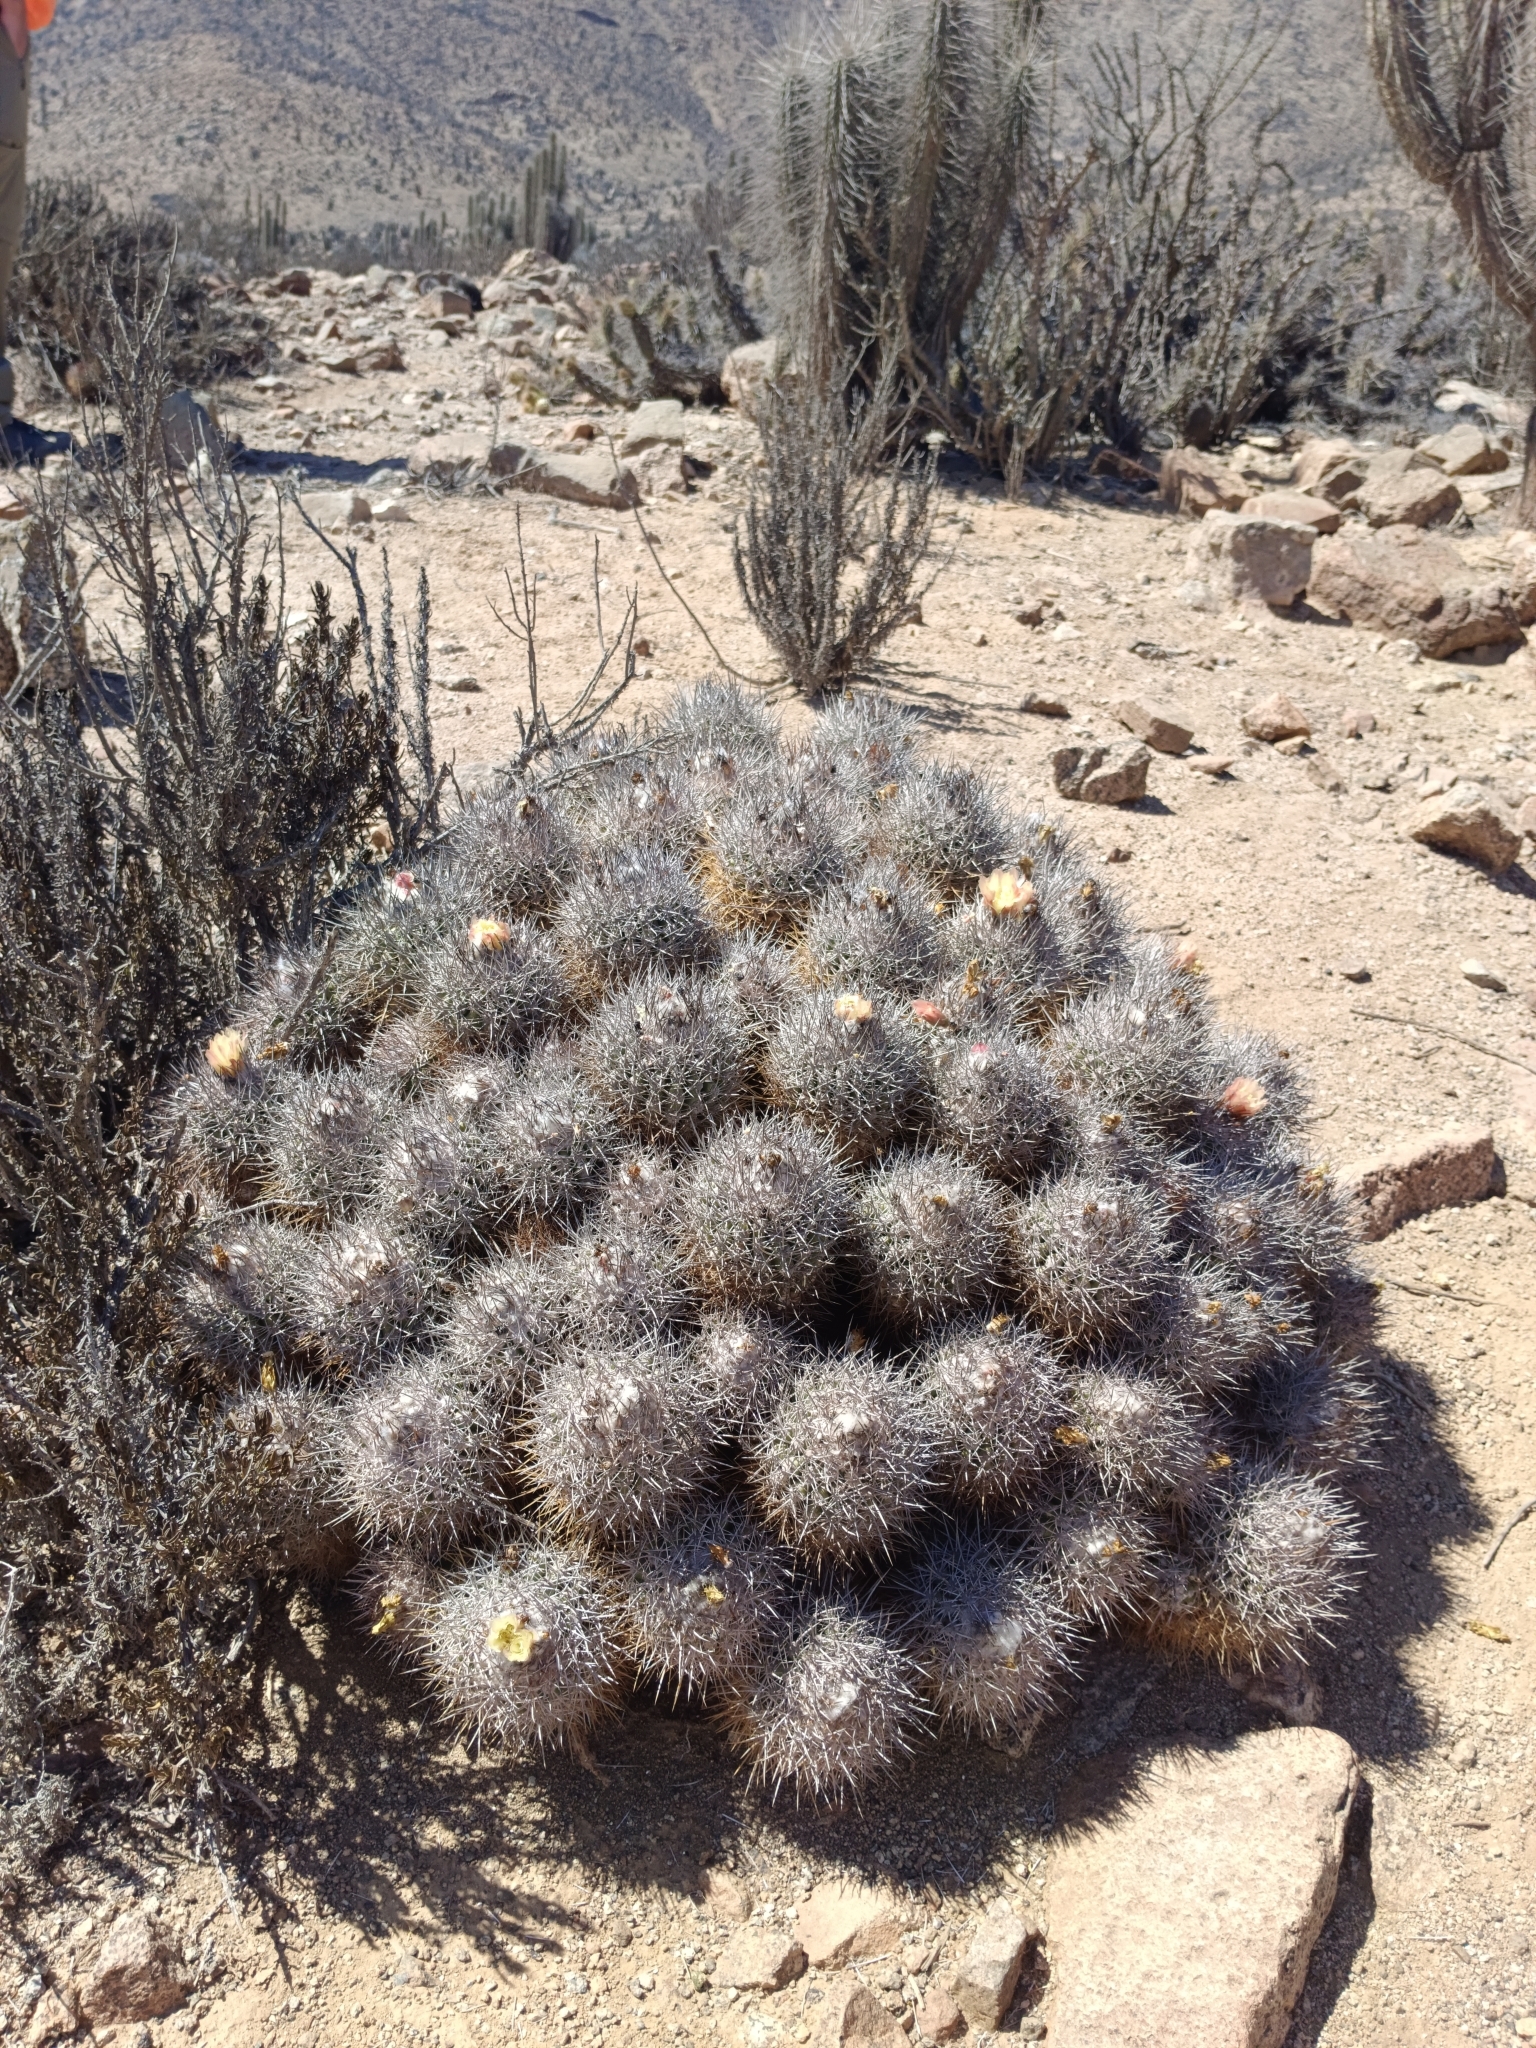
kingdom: Plantae
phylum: Tracheophyta
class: Magnoliopsida
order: Caryophyllales
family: Cactaceae
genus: Copiapoa
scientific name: Copiapoa coquimbana
